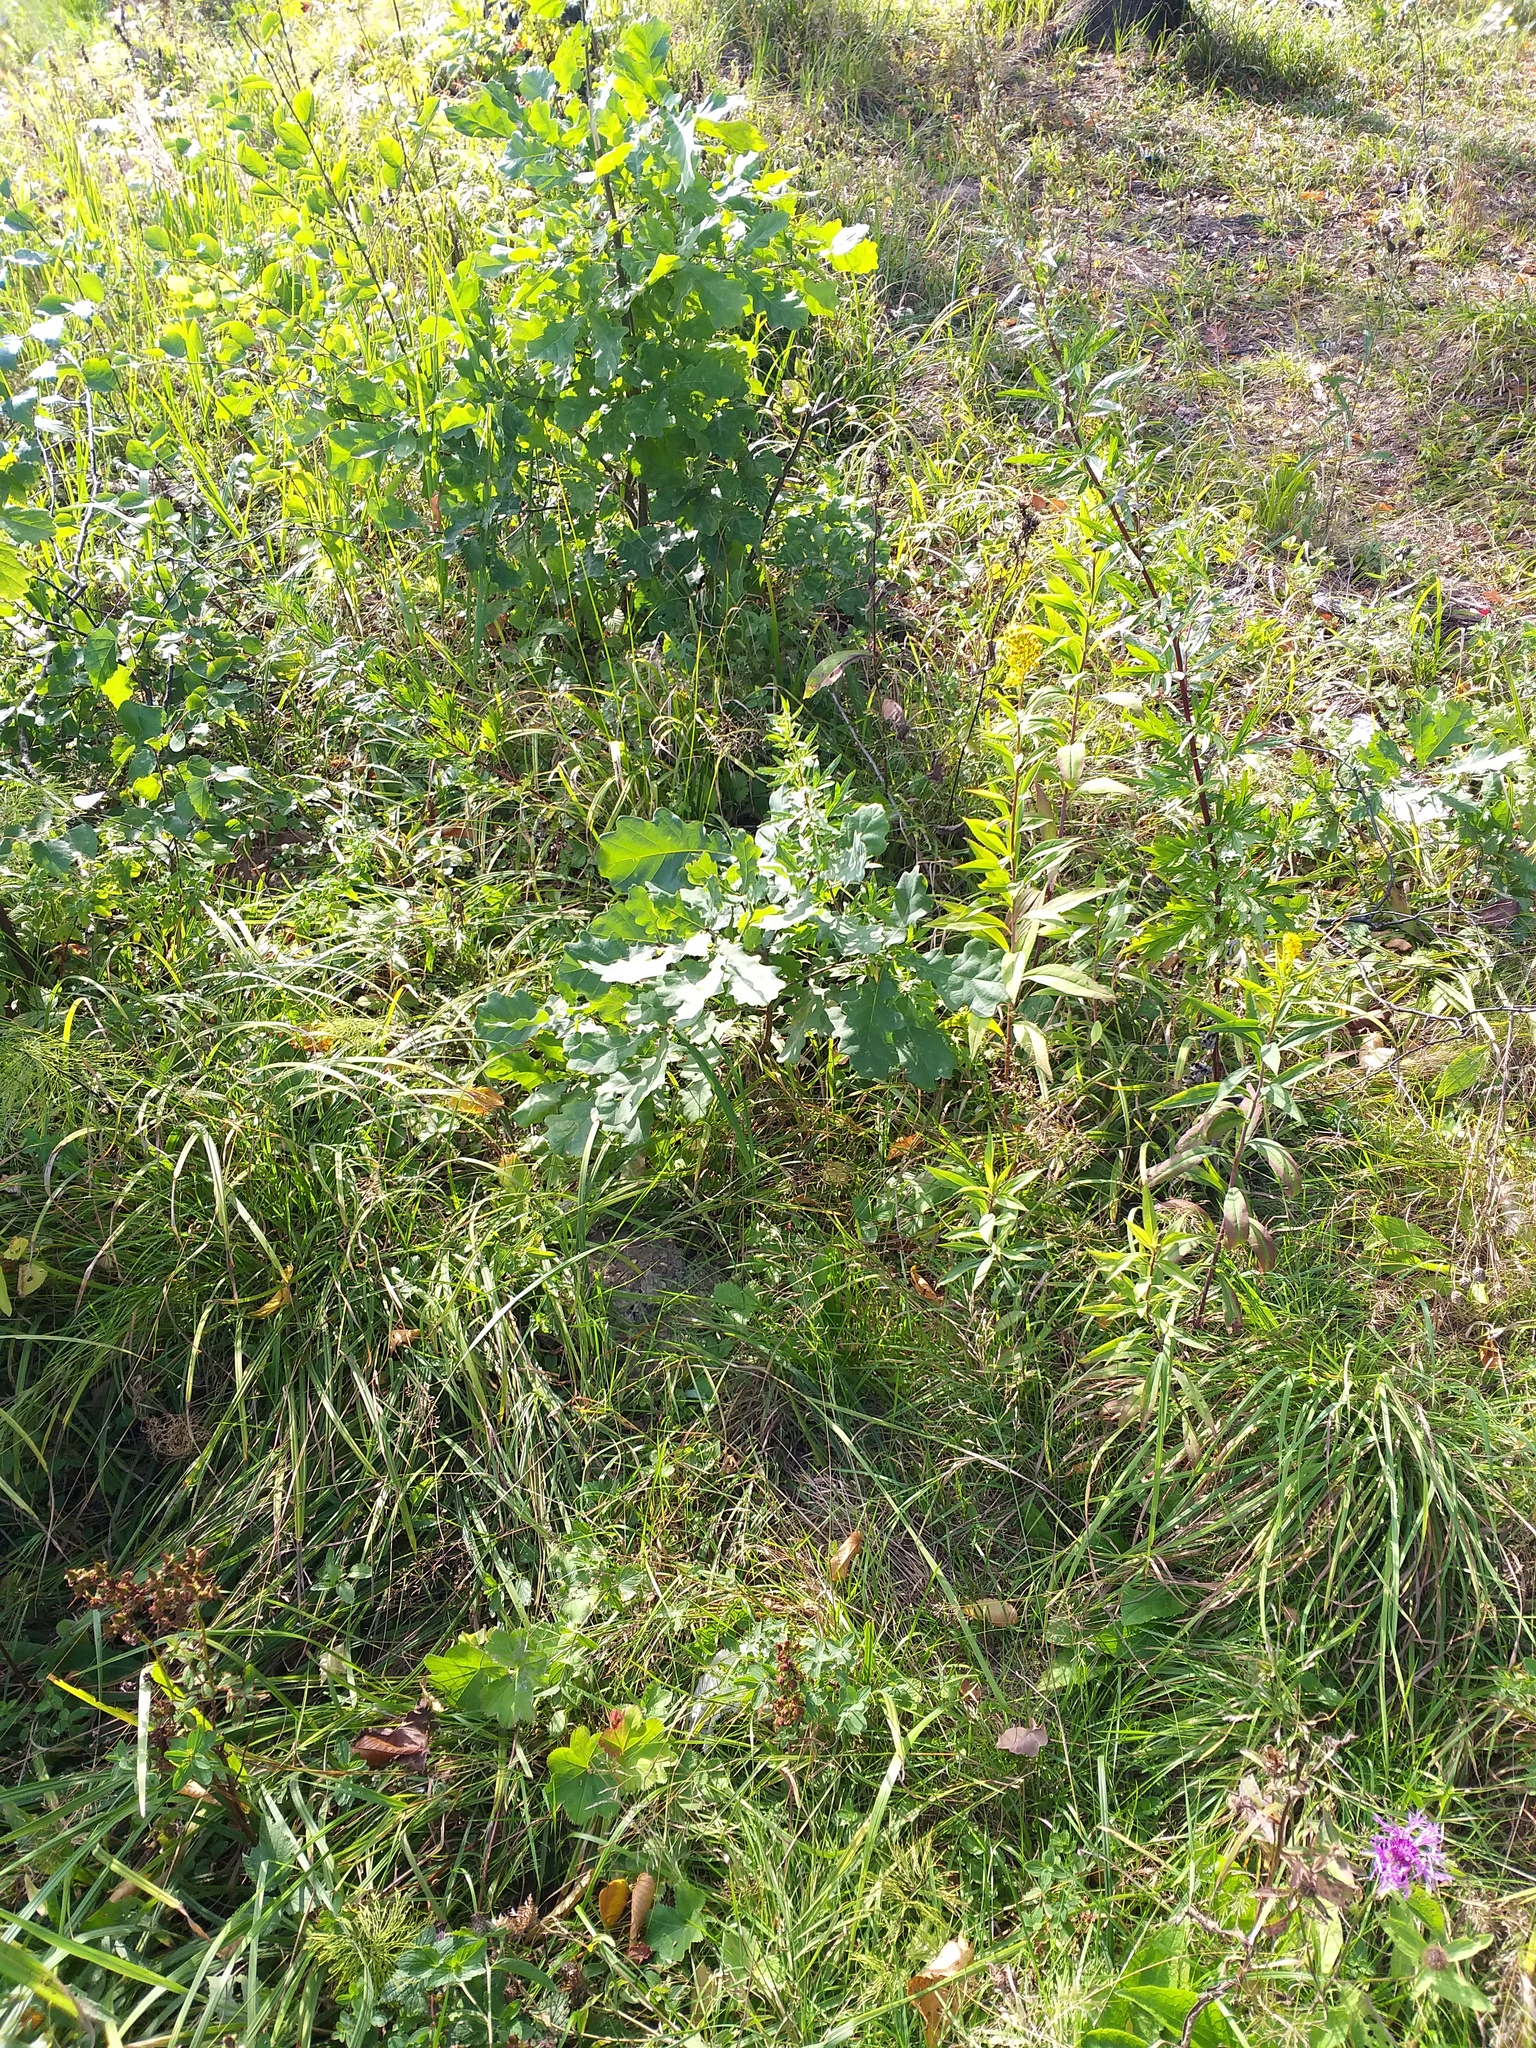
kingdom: Plantae
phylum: Tracheophyta
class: Magnoliopsida
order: Fagales
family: Fagaceae
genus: Quercus
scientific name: Quercus robur
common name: Pedunculate oak
